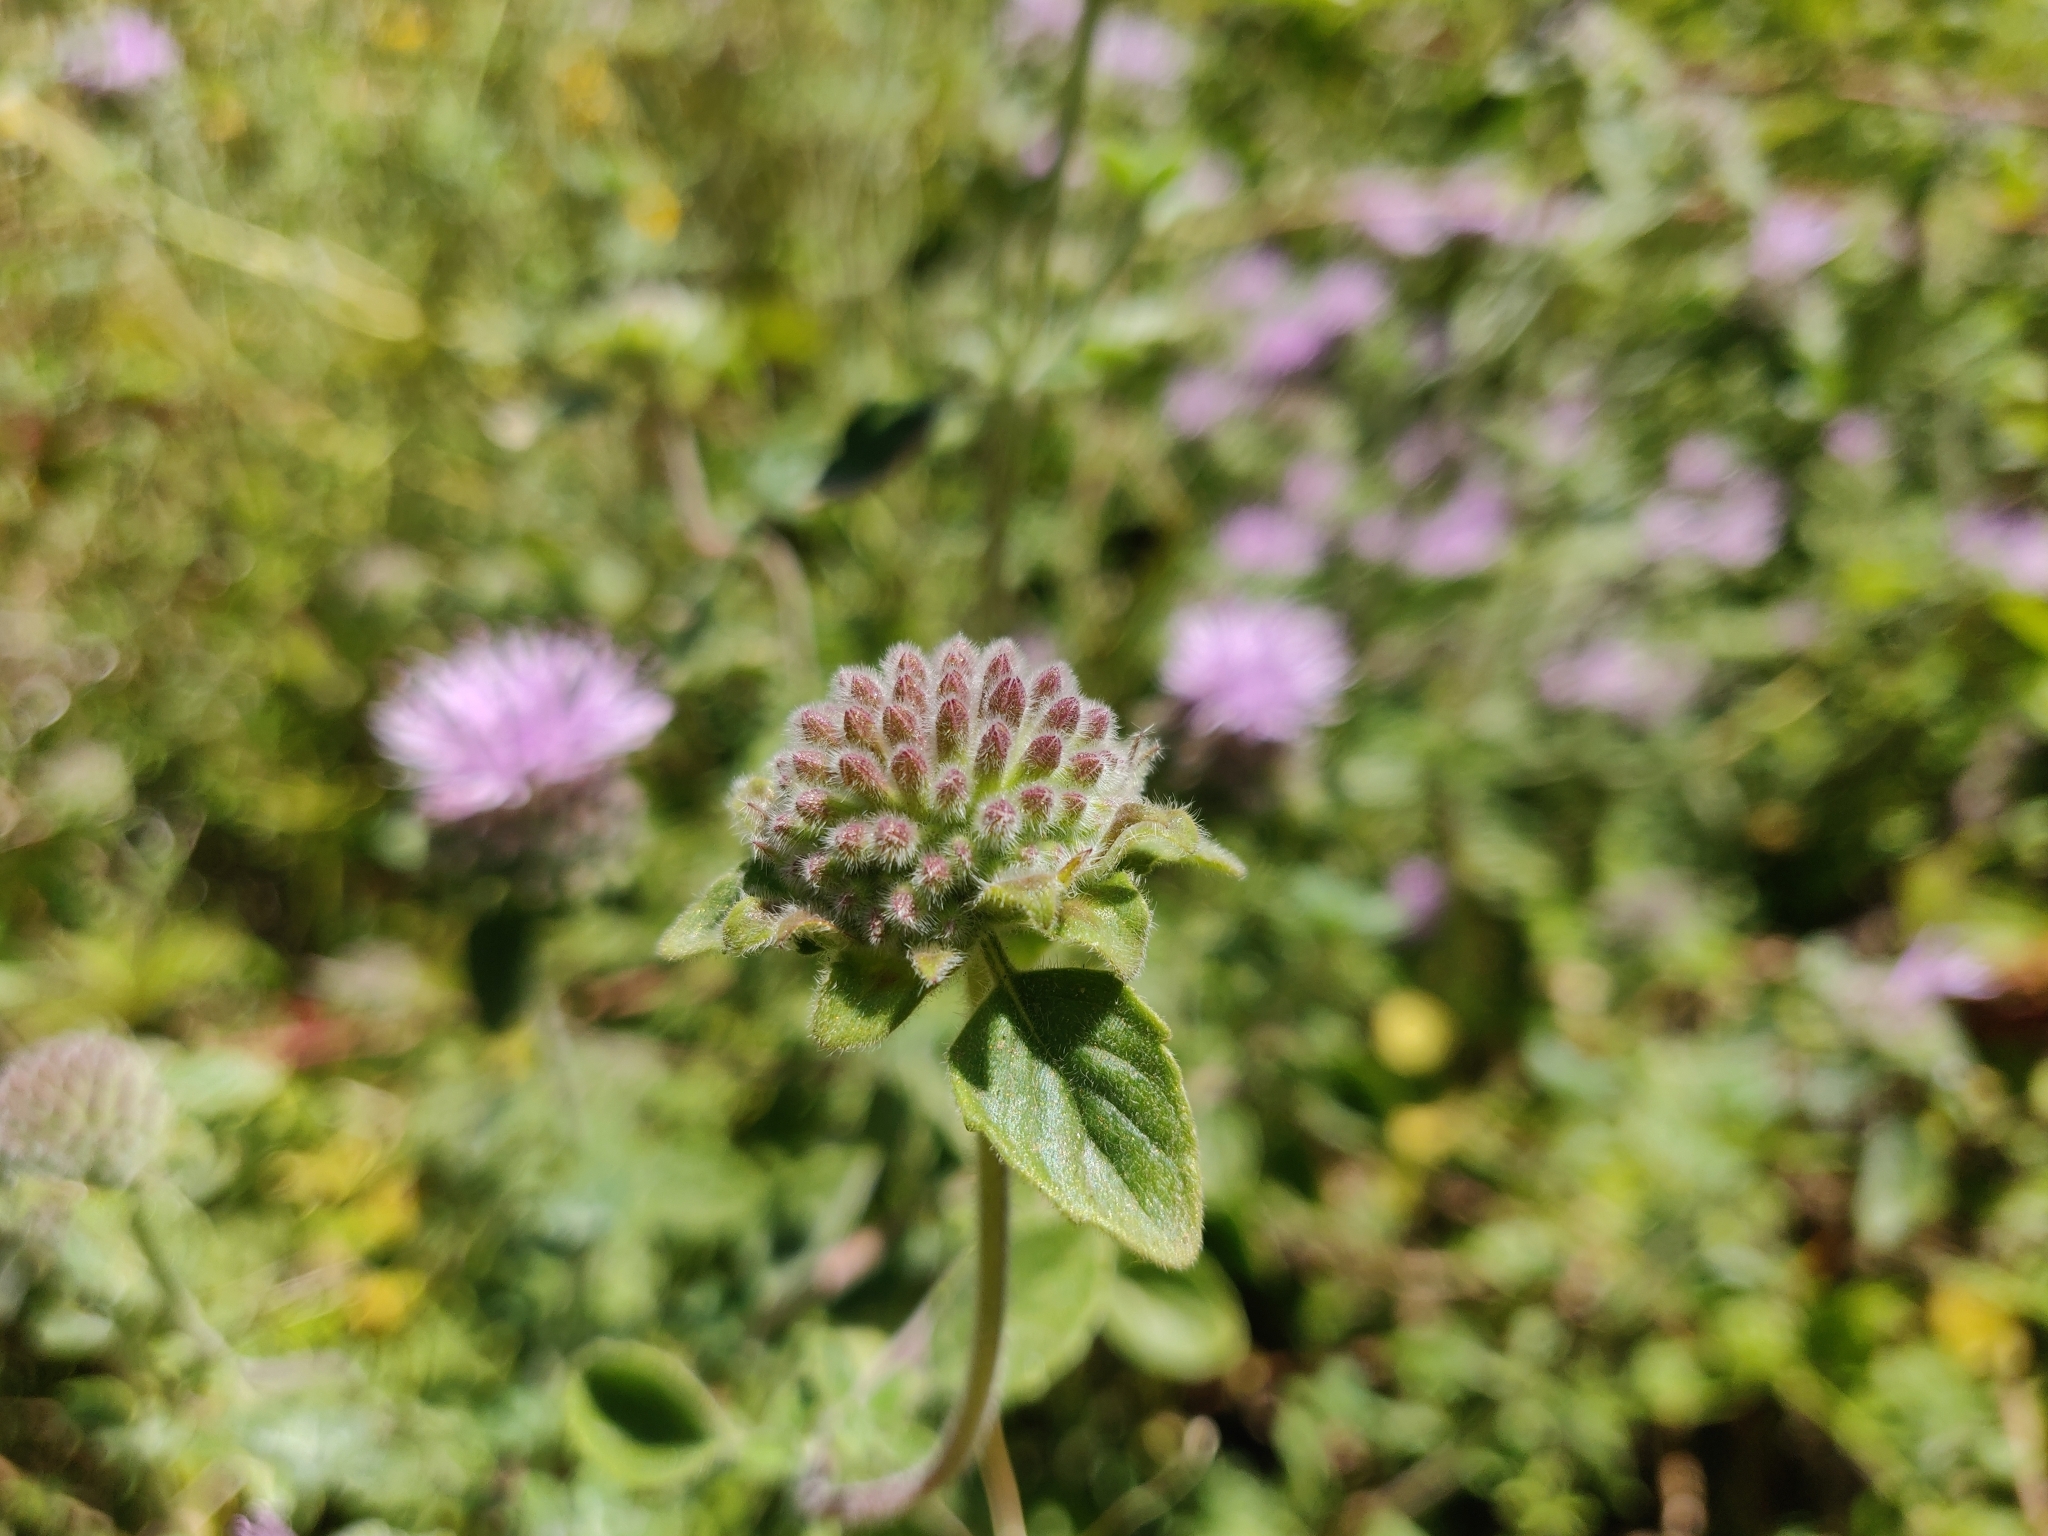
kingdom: Plantae
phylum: Tracheophyta
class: Magnoliopsida
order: Lamiales
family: Lamiaceae
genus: Monardella
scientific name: Monardella odoratissima
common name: Pacific monardella
